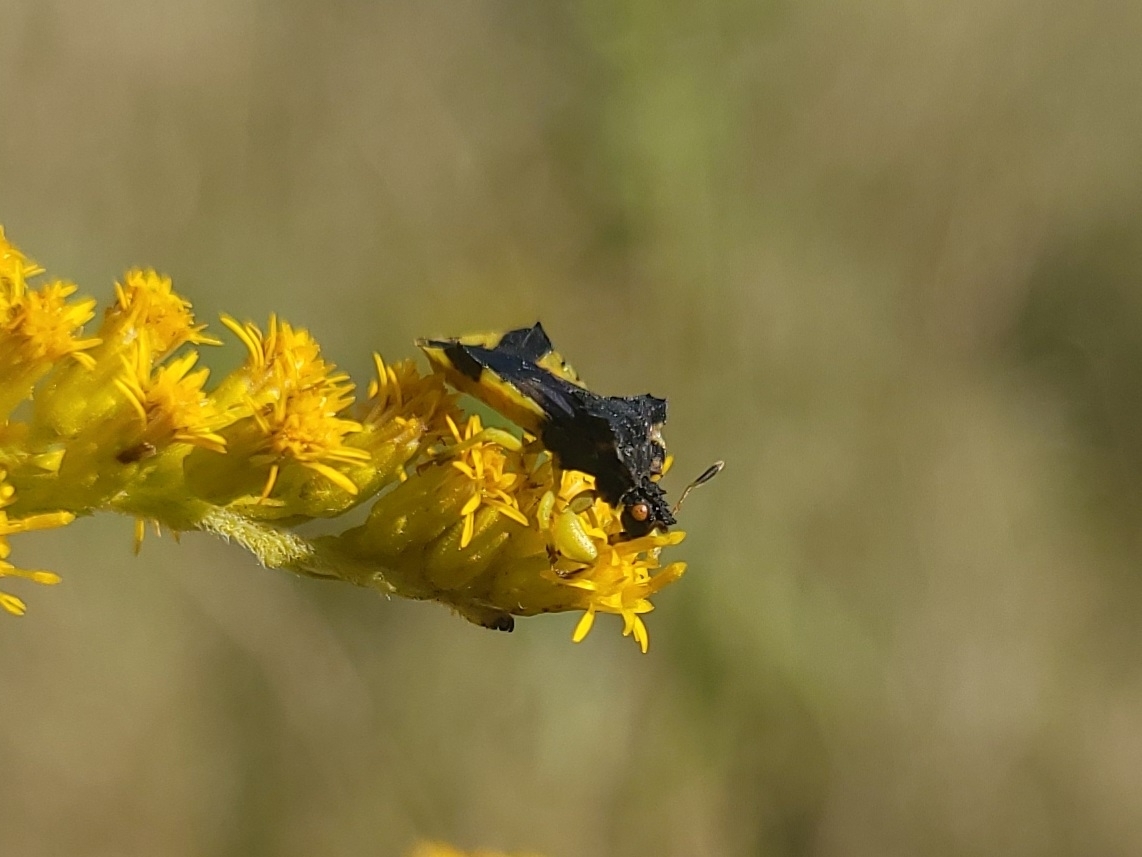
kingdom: Animalia
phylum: Arthropoda
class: Insecta
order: Hemiptera
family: Reduviidae
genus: Phymata
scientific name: Phymata americana
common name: Jagged ambush bug
